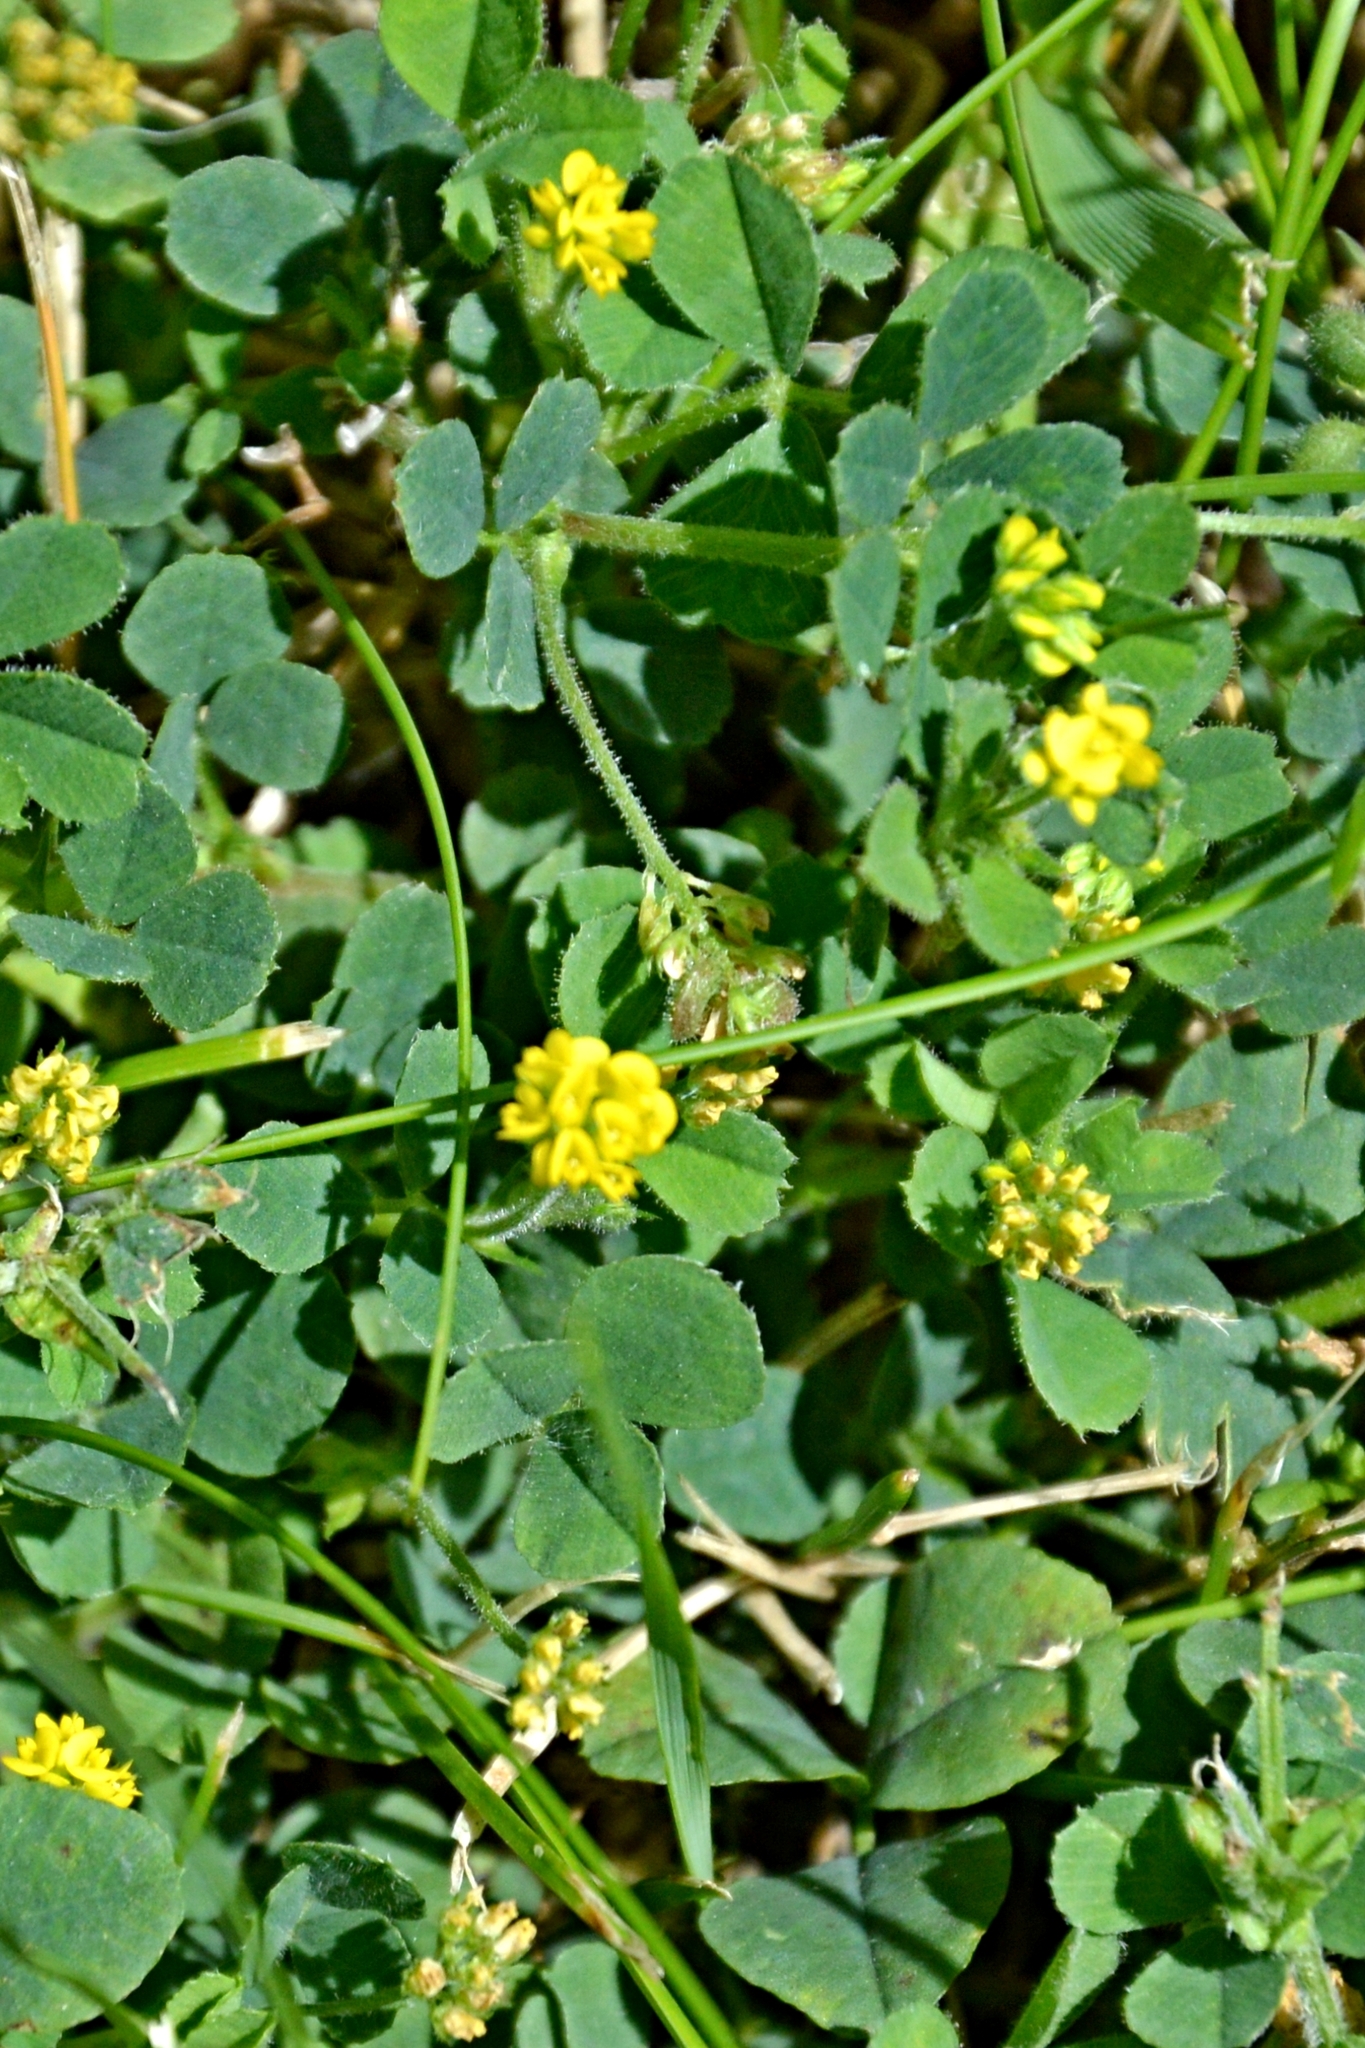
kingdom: Plantae
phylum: Tracheophyta
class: Magnoliopsida
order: Fabales
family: Fabaceae
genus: Medicago
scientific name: Medicago lupulina
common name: Black medick
